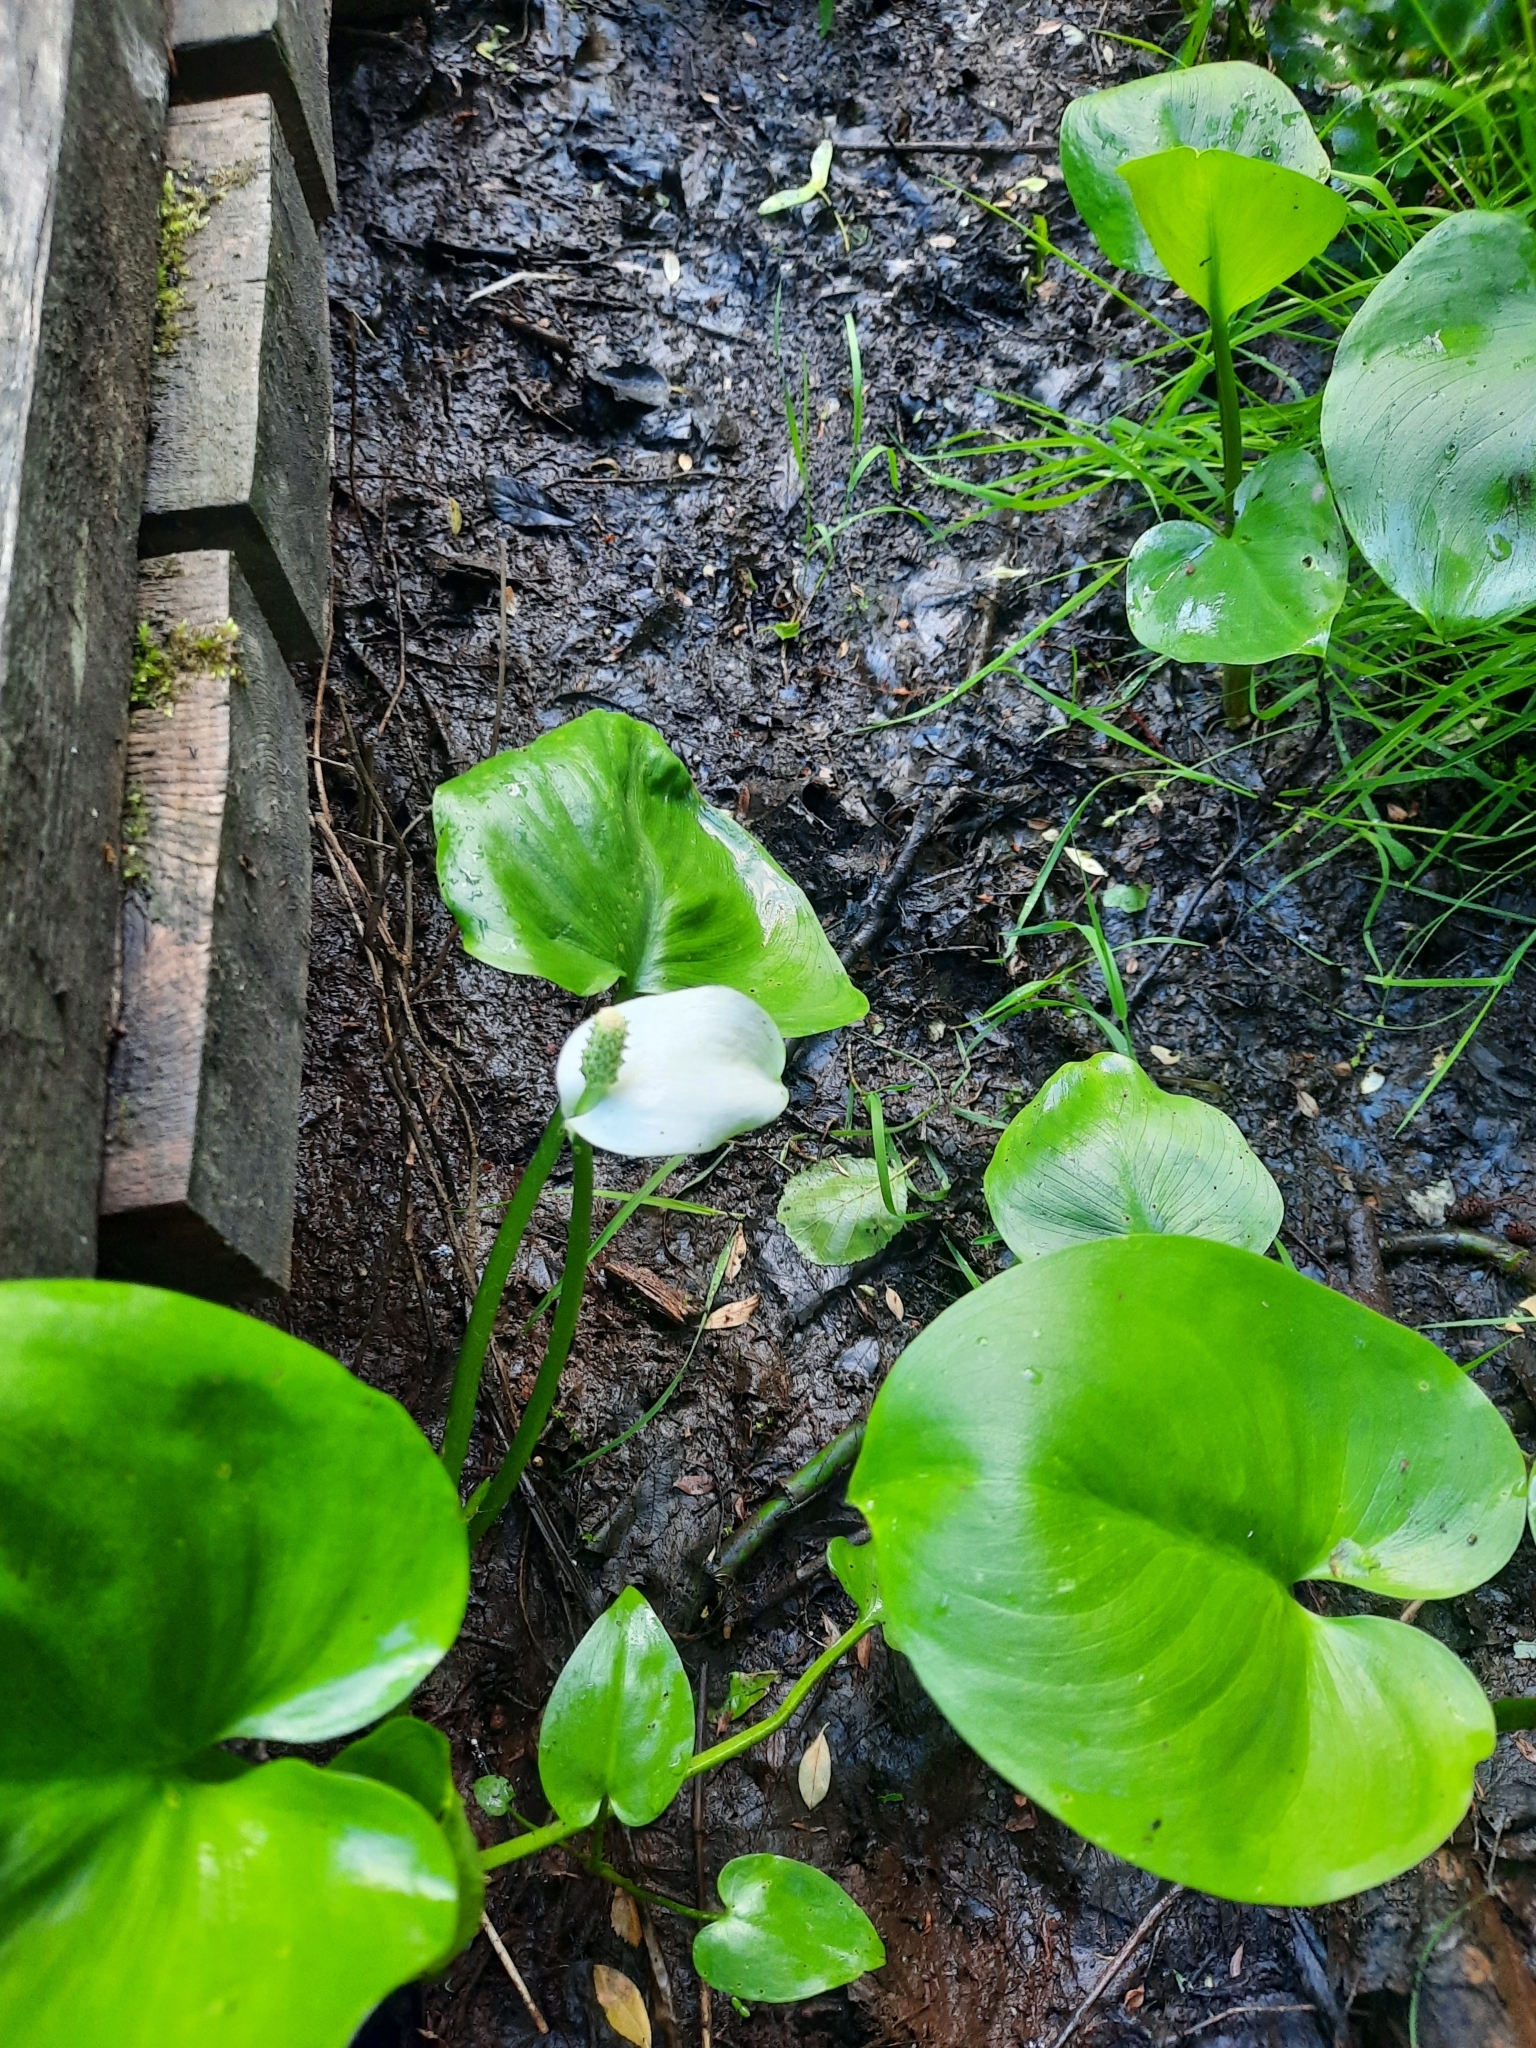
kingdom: Plantae
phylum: Tracheophyta
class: Liliopsida
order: Alismatales
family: Araceae
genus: Calla
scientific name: Calla palustris
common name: Bog arum
